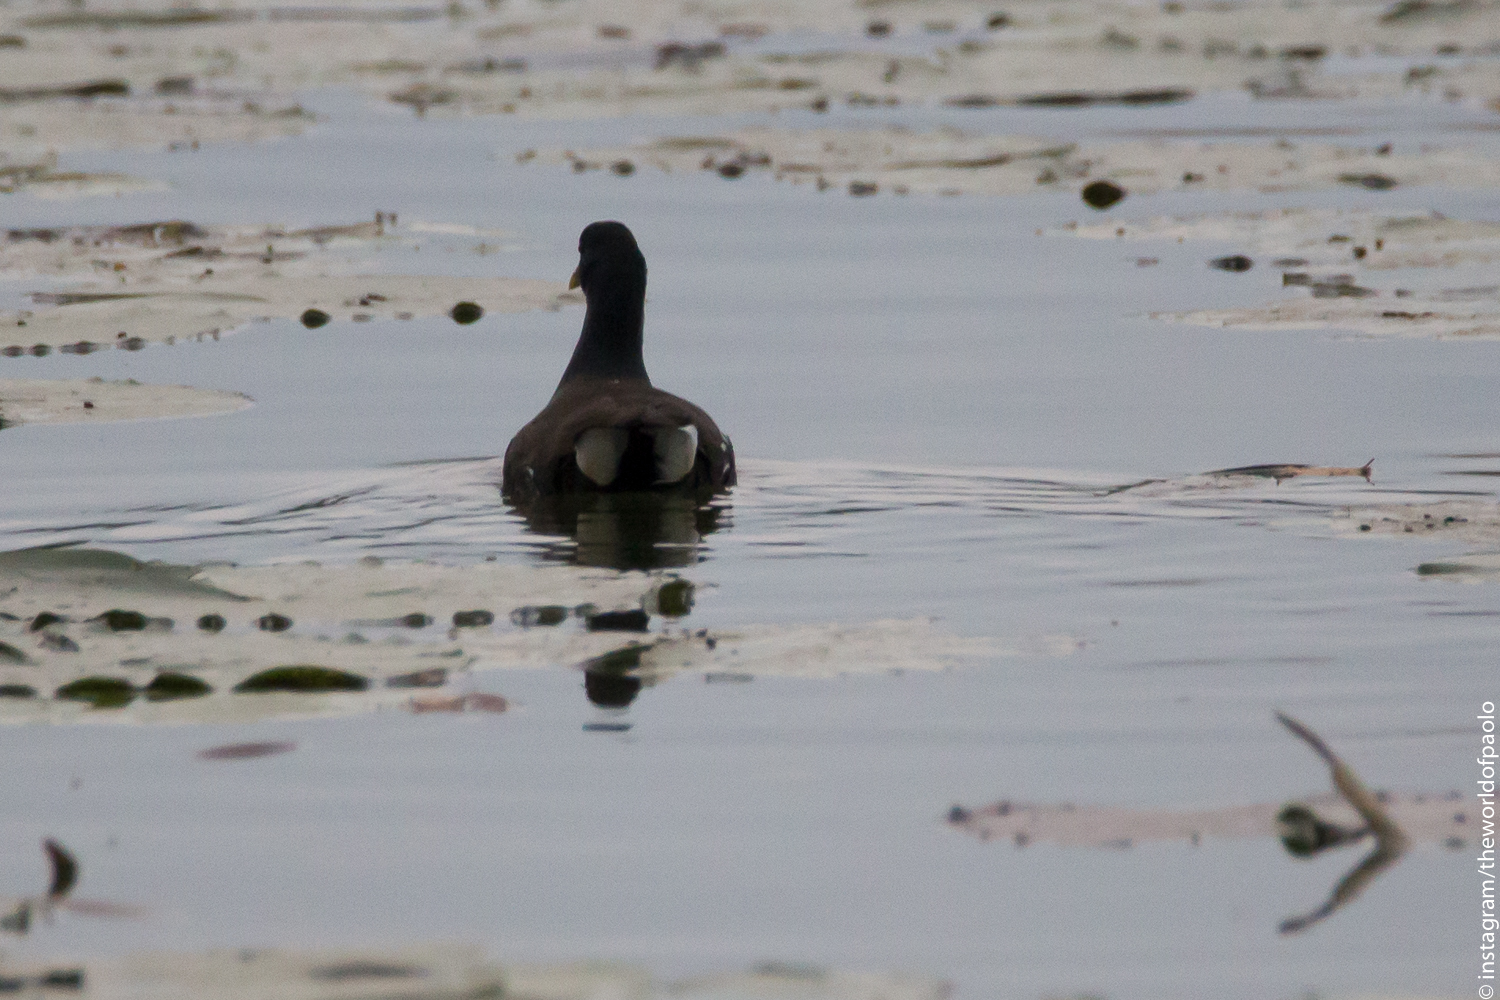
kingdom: Animalia
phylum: Chordata
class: Aves
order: Gruiformes
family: Rallidae
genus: Gallinula
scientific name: Gallinula chloropus
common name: Common moorhen
